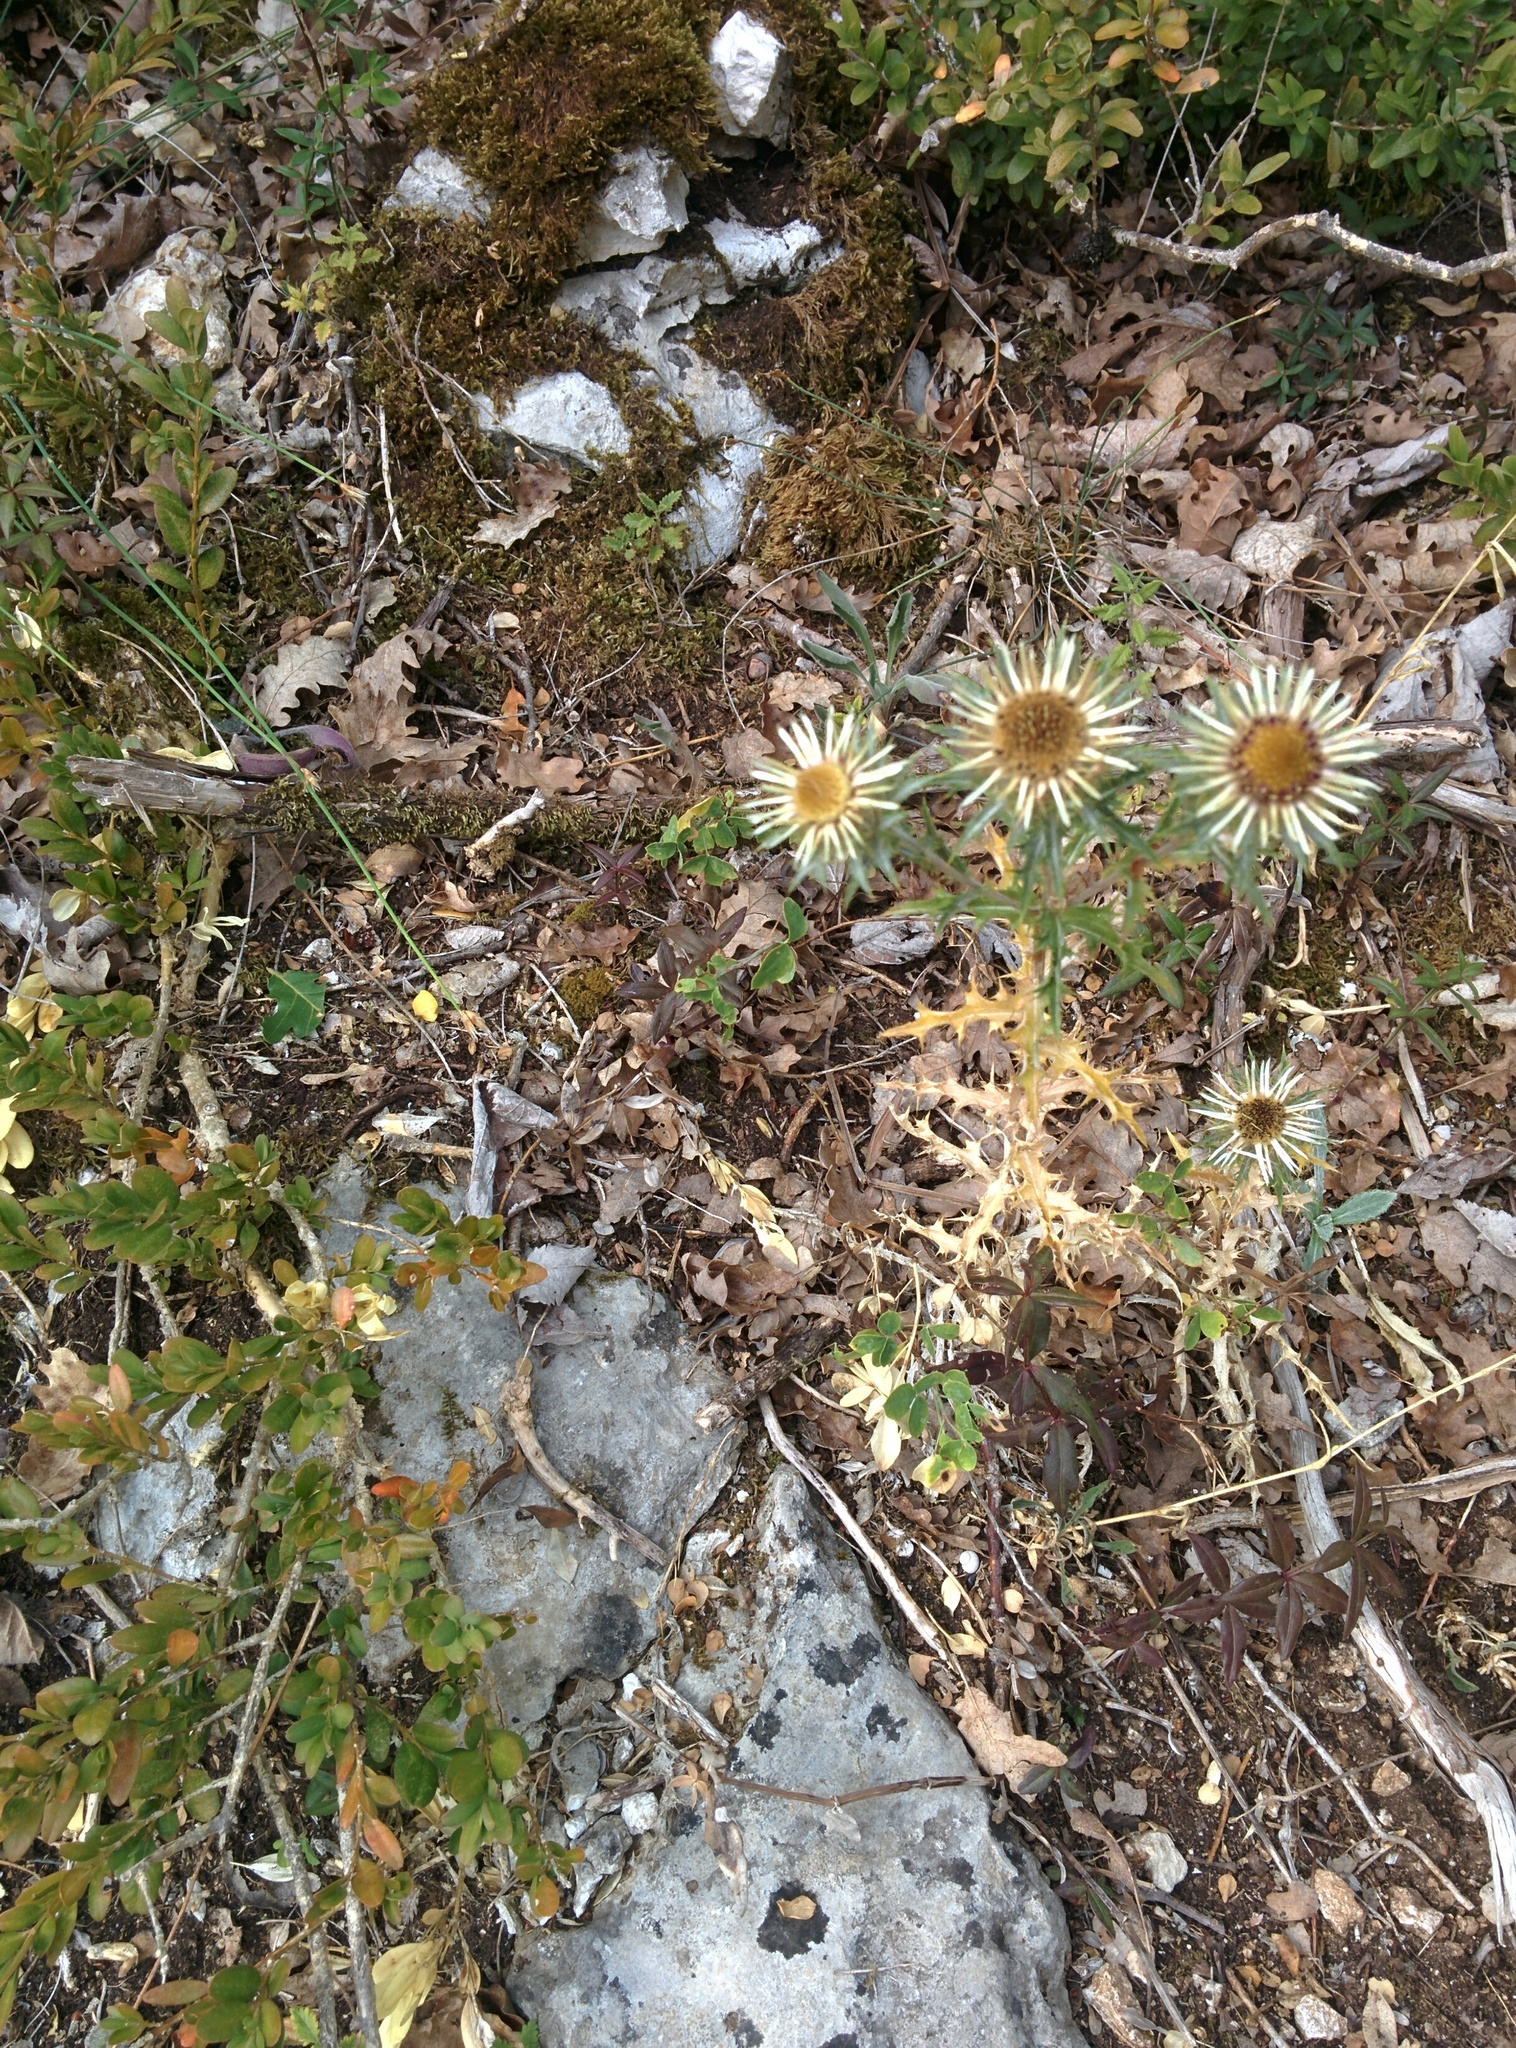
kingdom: Plantae
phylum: Tracheophyta
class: Magnoliopsida
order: Asterales
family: Asteraceae
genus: Carlina
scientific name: Carlina vulgaris
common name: Carline thistle
